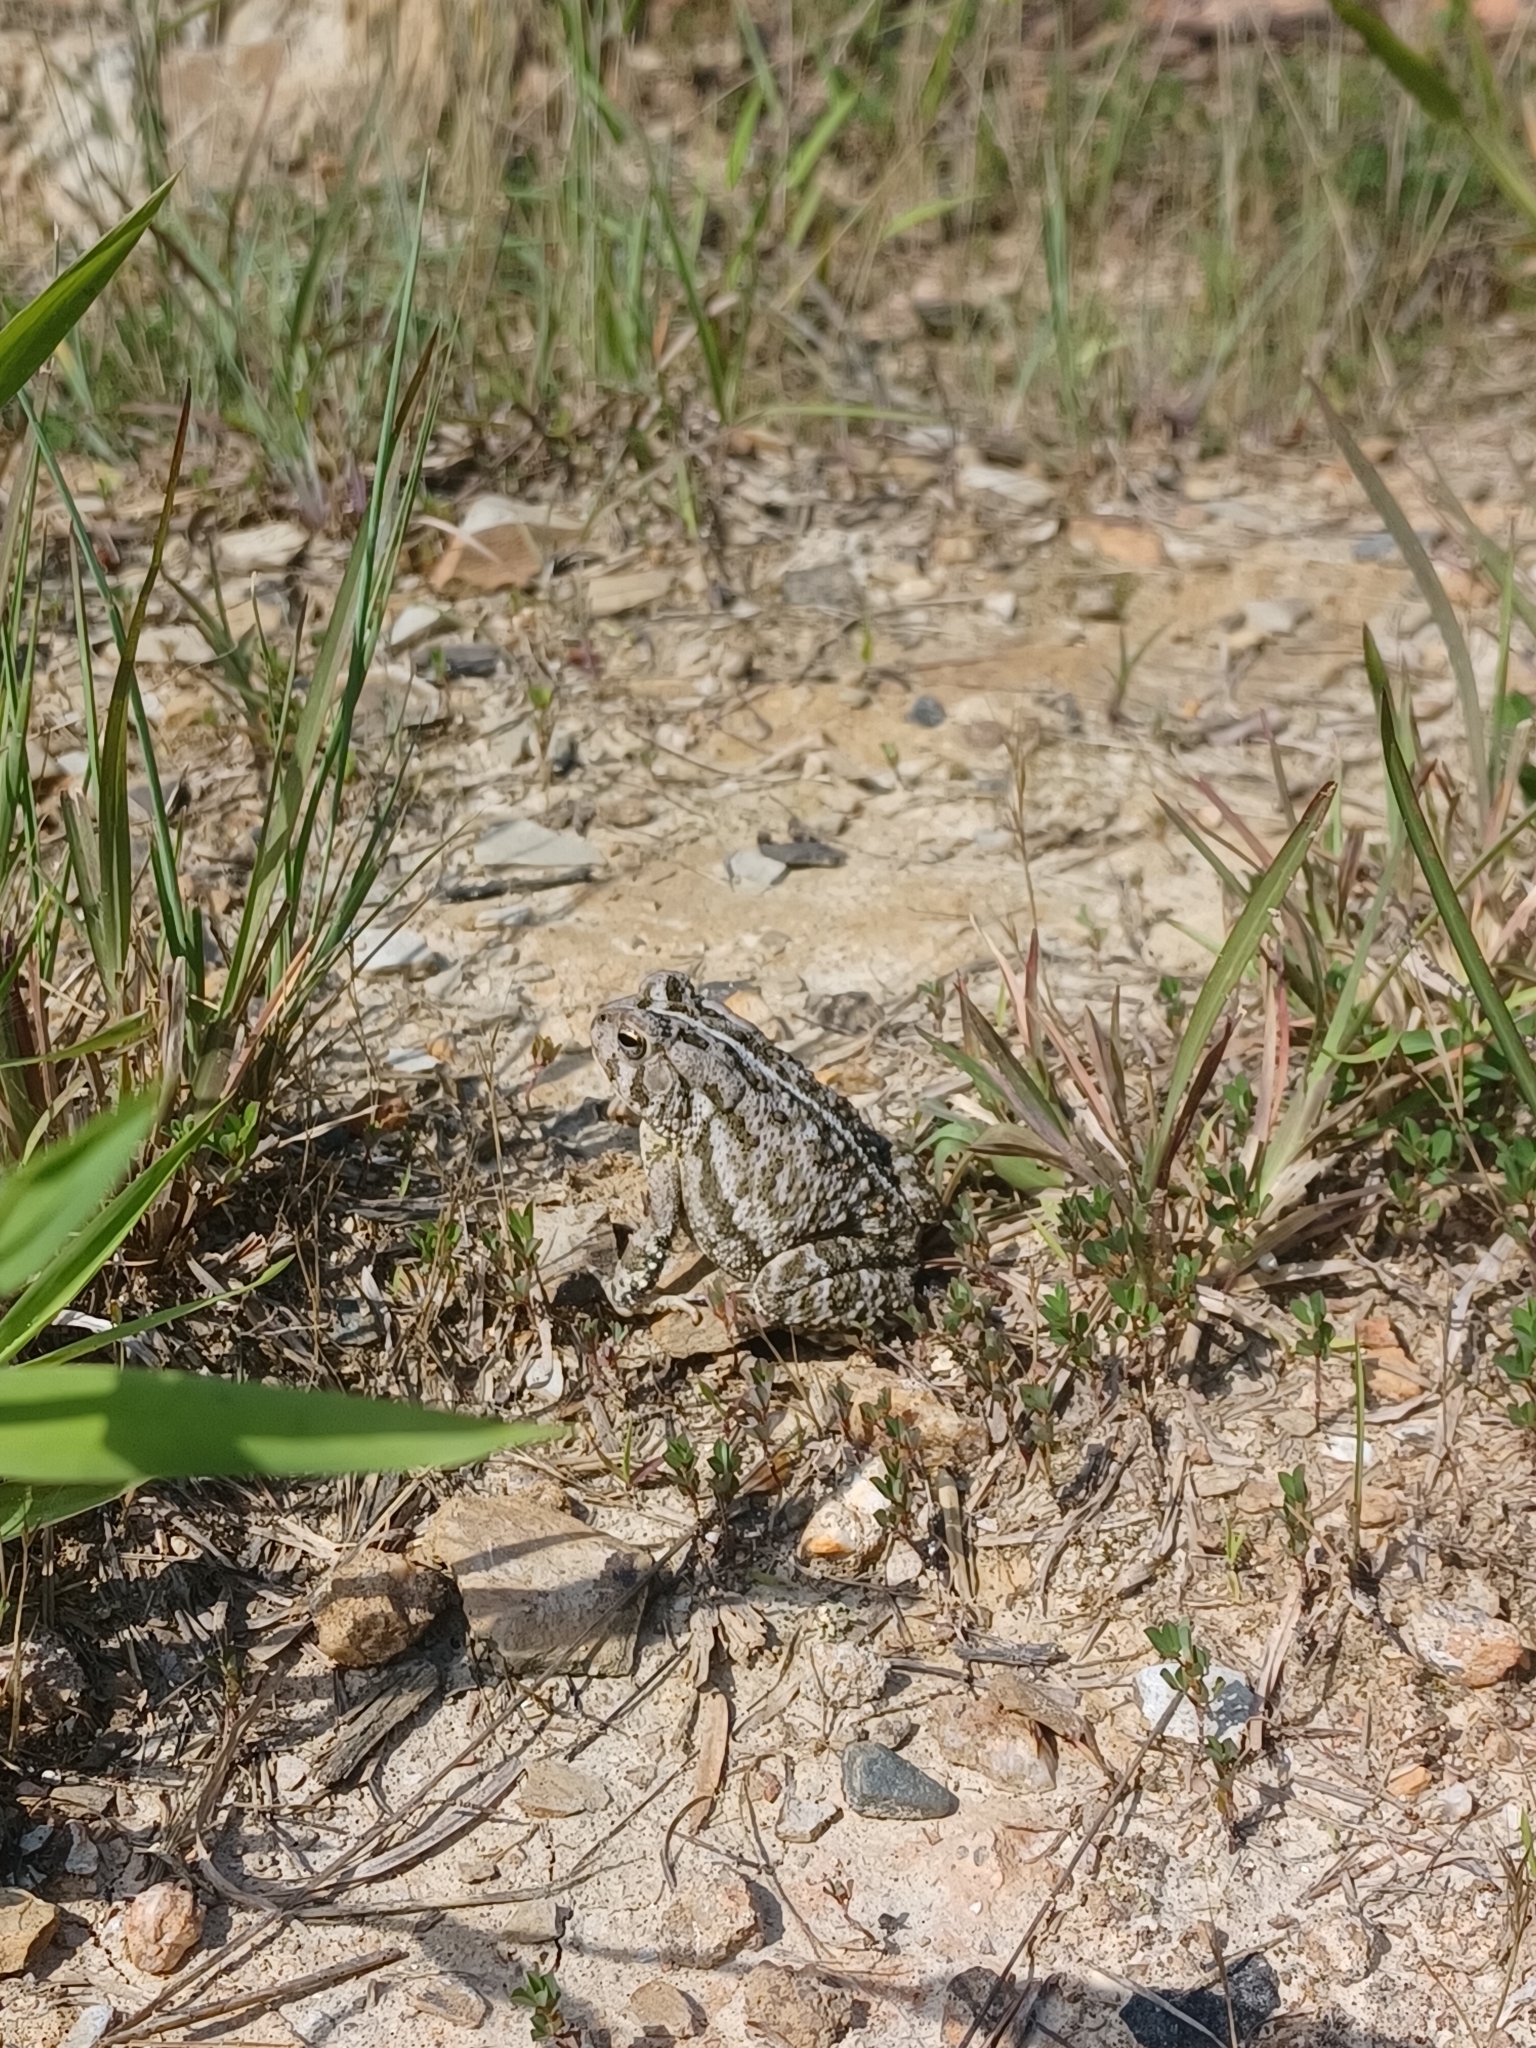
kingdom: Animalia
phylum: Chordata
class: Amphibia
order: Anura
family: Bufonidae
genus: Anaxyrus
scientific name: Anaxyrus fowleri
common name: Fowler's toad
